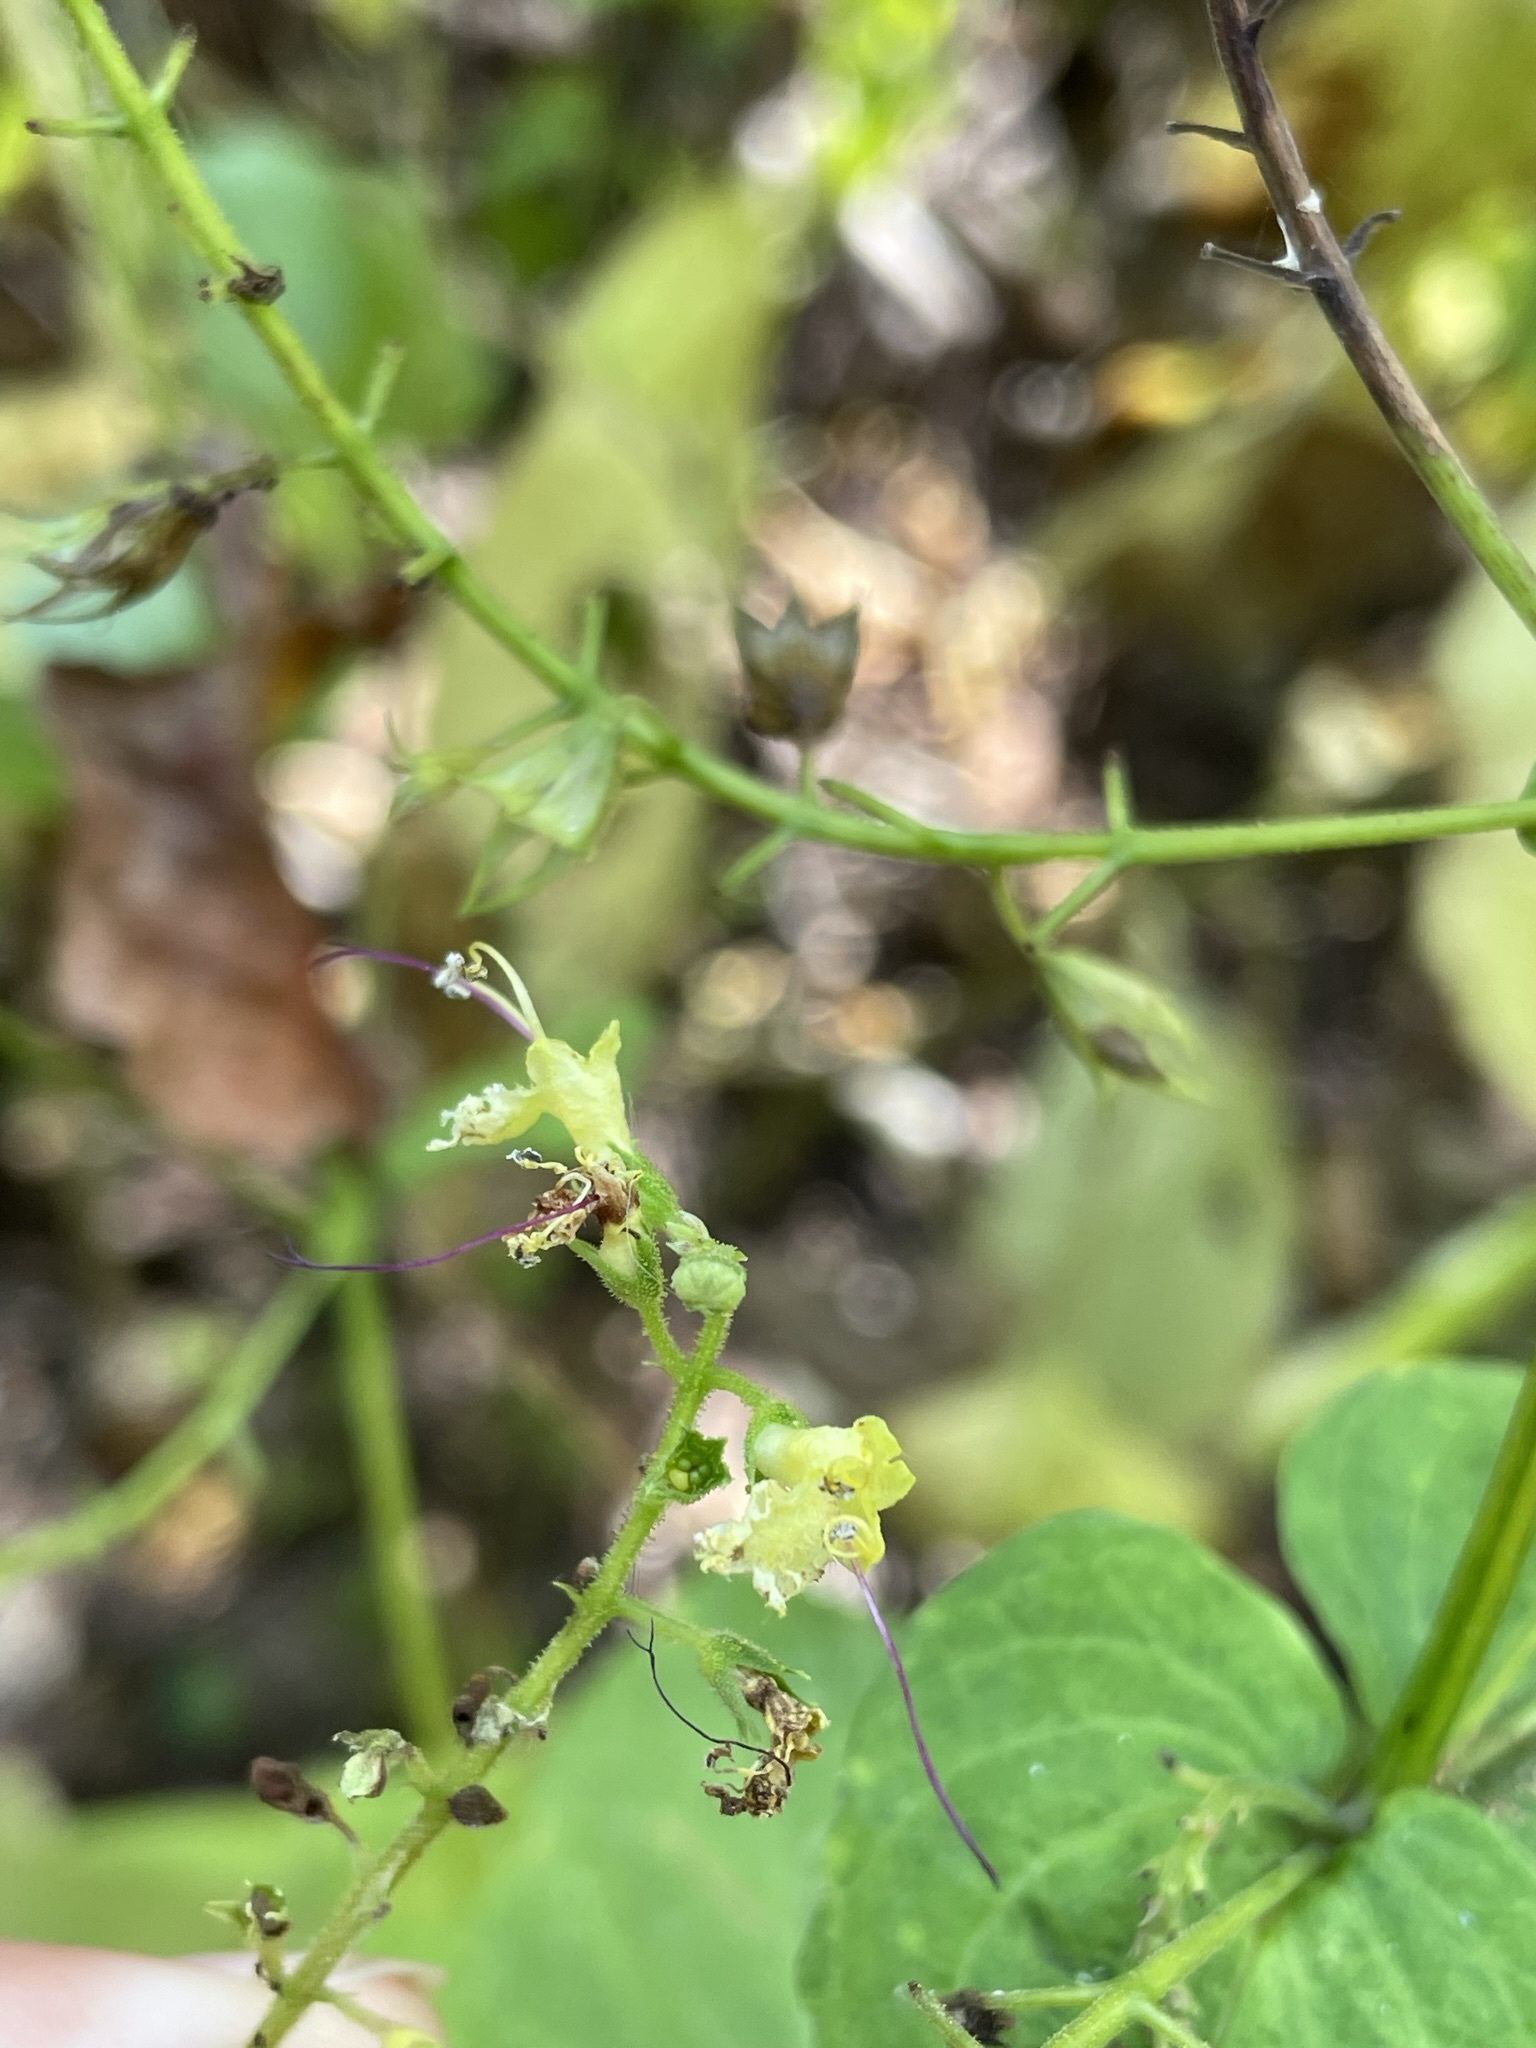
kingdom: Plantae
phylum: Tracheophyta
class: Magnoliopsida
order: Lamiales
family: Lamiaceae
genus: Collinsonia
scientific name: Collinsonia canadensis
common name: Northern horsebalm
